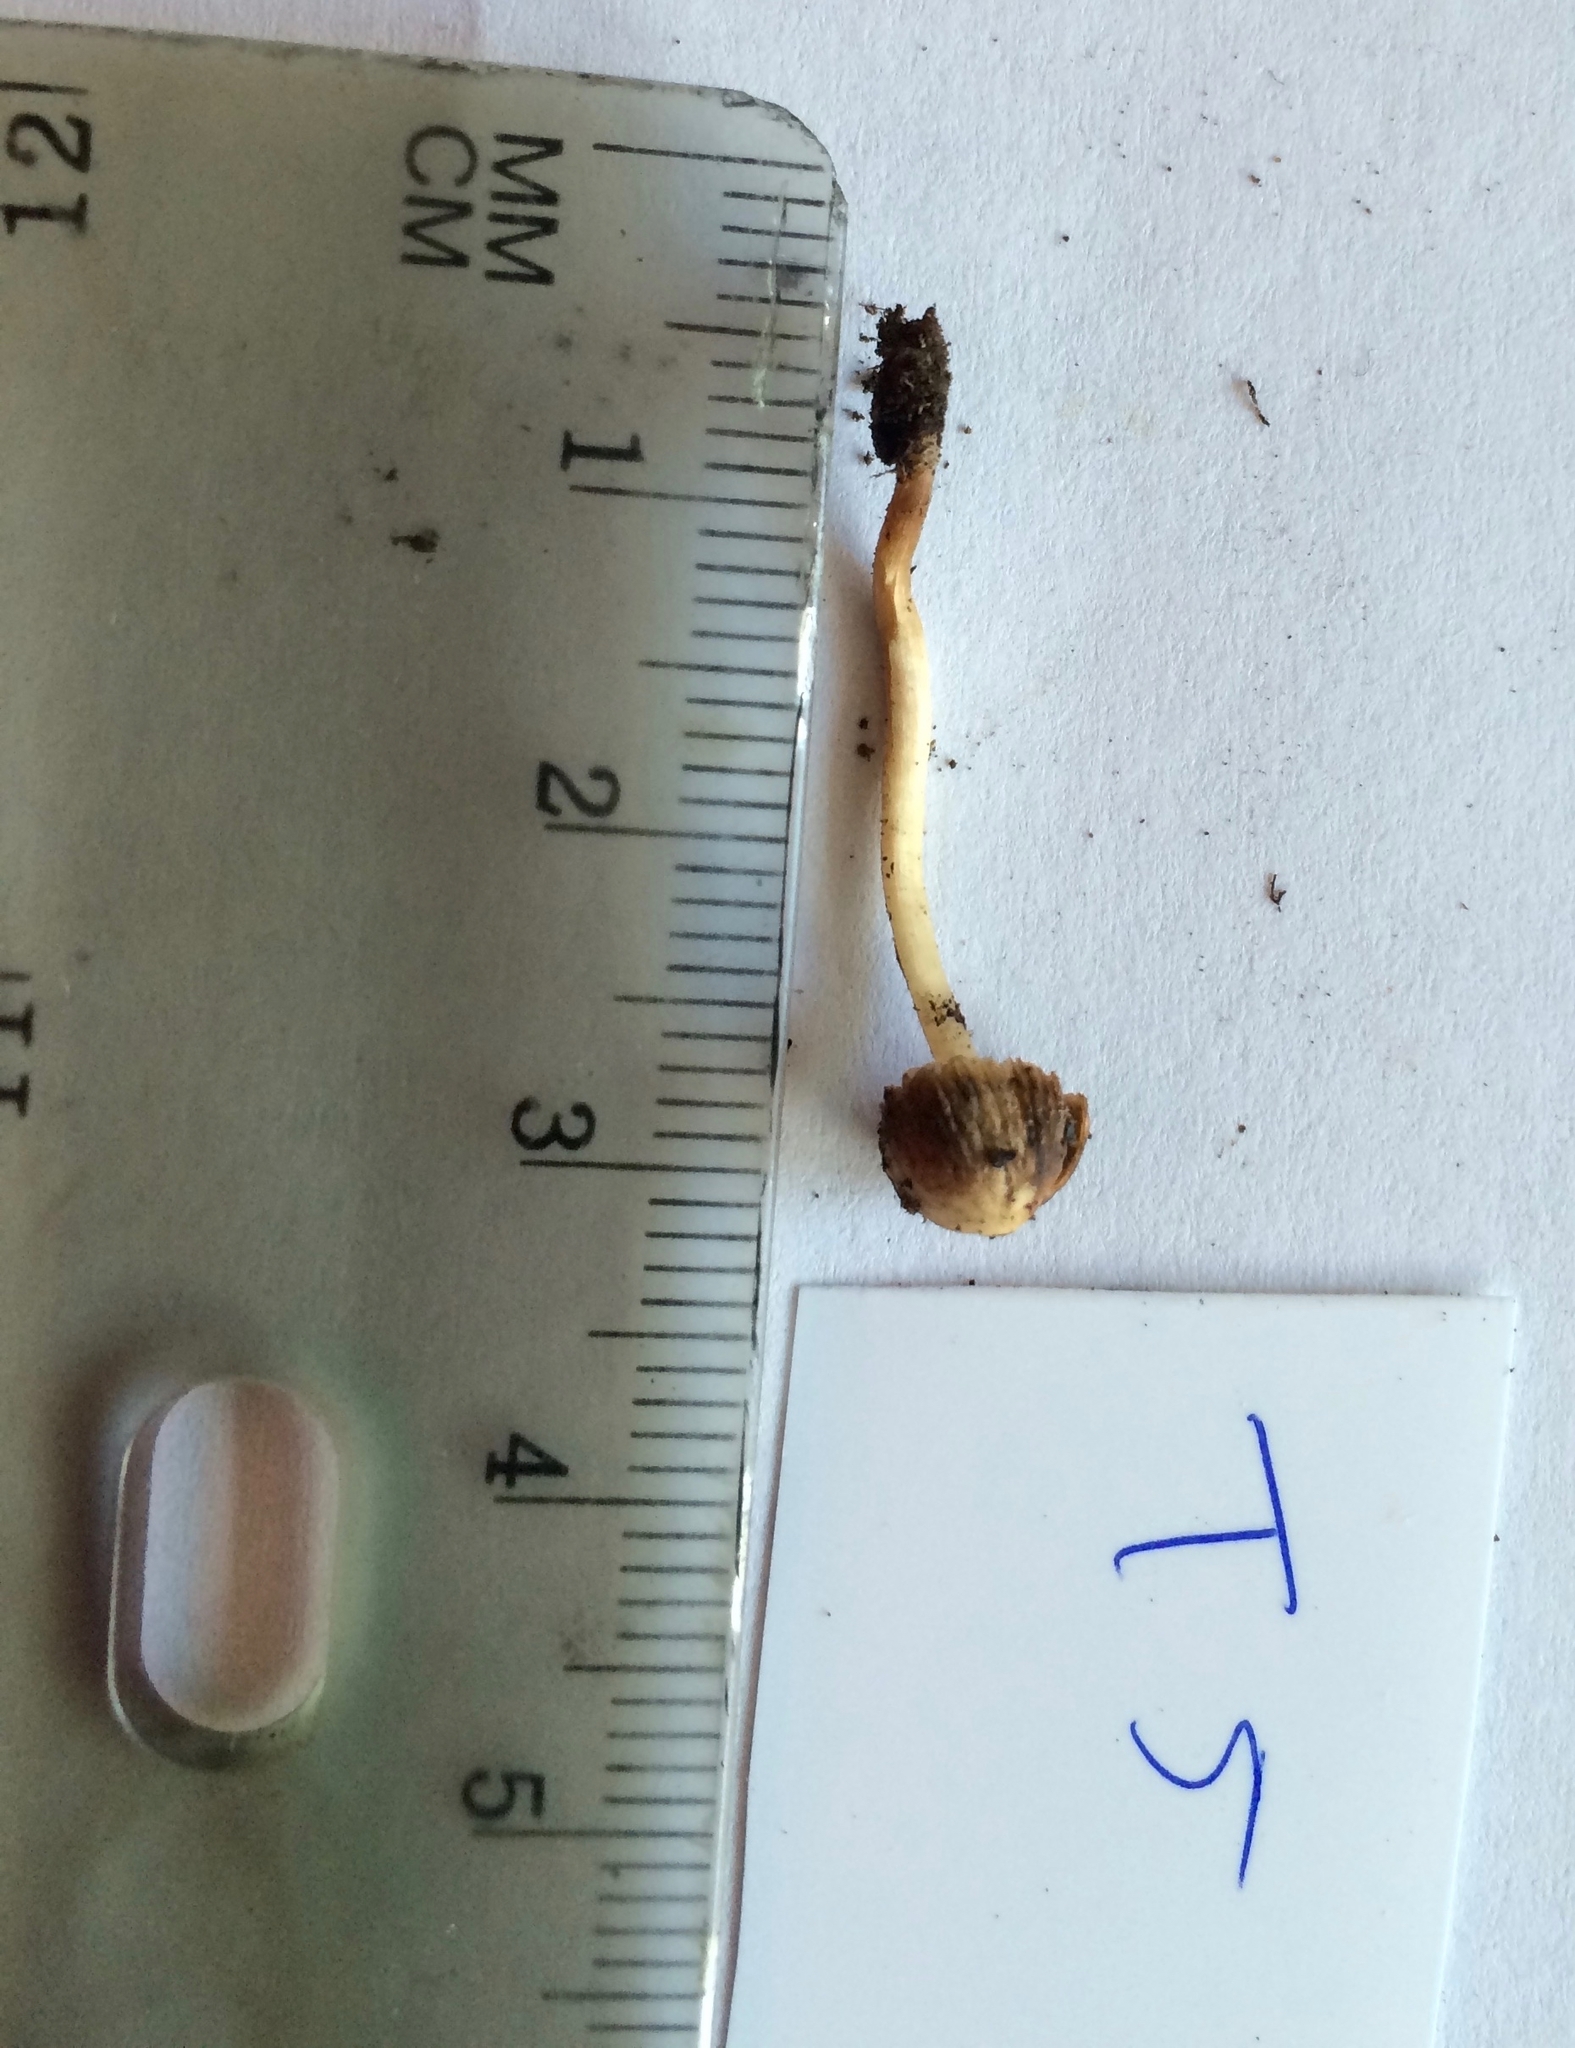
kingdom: Fungi
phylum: Basidiomycota
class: Agaricomycetes
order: Agaricales
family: Psathyrellaceae
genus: Psathyrella
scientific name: Psathyrella flexispora
